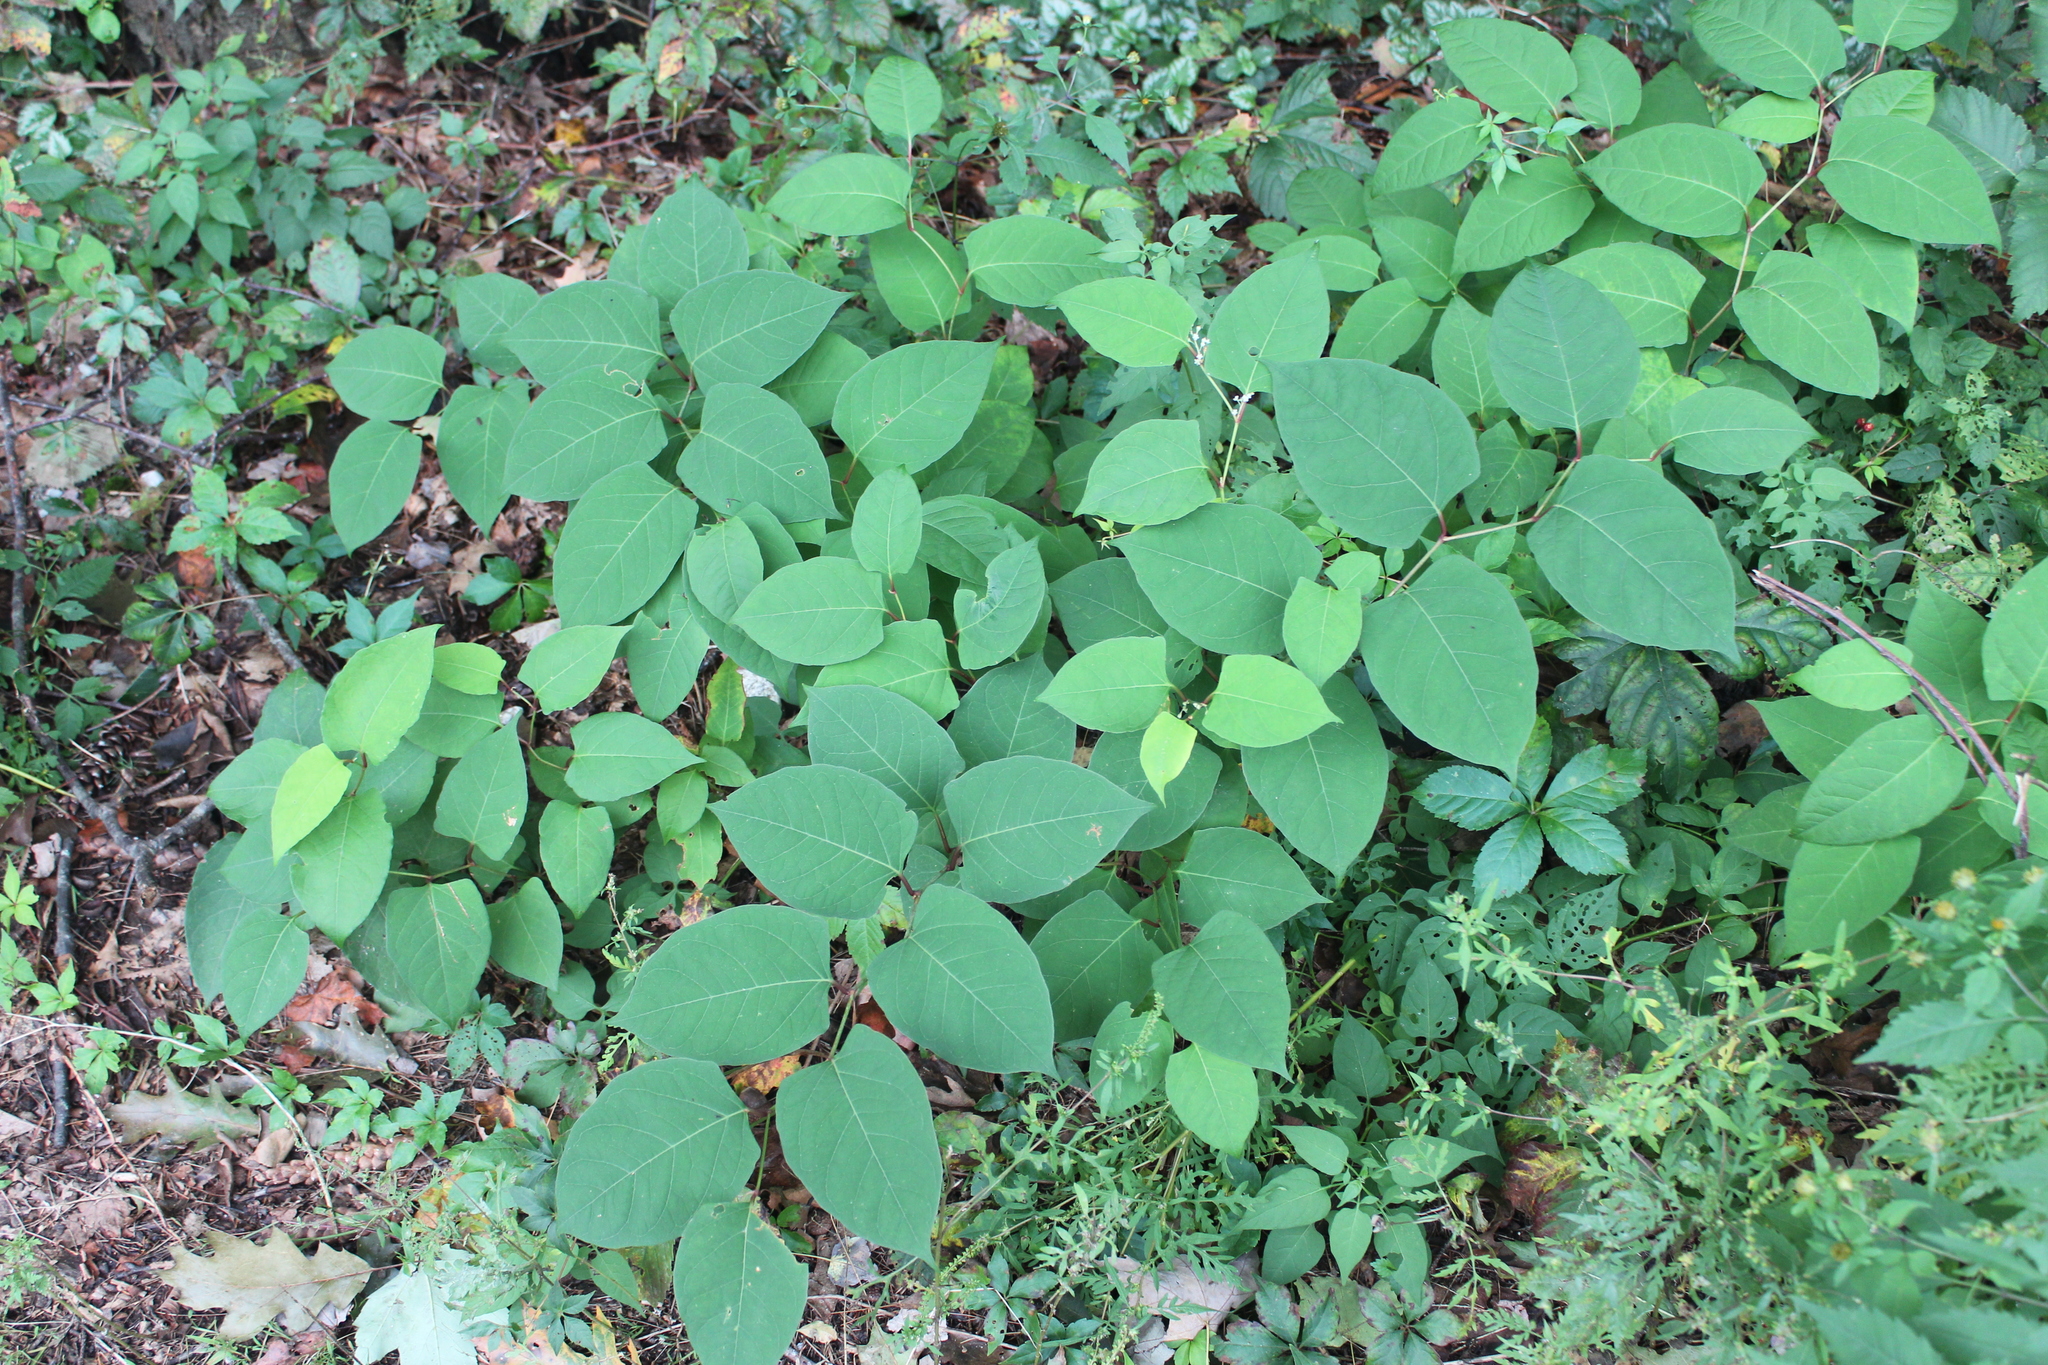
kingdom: Plantae
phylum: Tracheophyta
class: Magnoliopsida
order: Caryophyllales
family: Polygonaceae
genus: Reynoutria
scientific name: Reynoutria japonica
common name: Japanese knotweed
